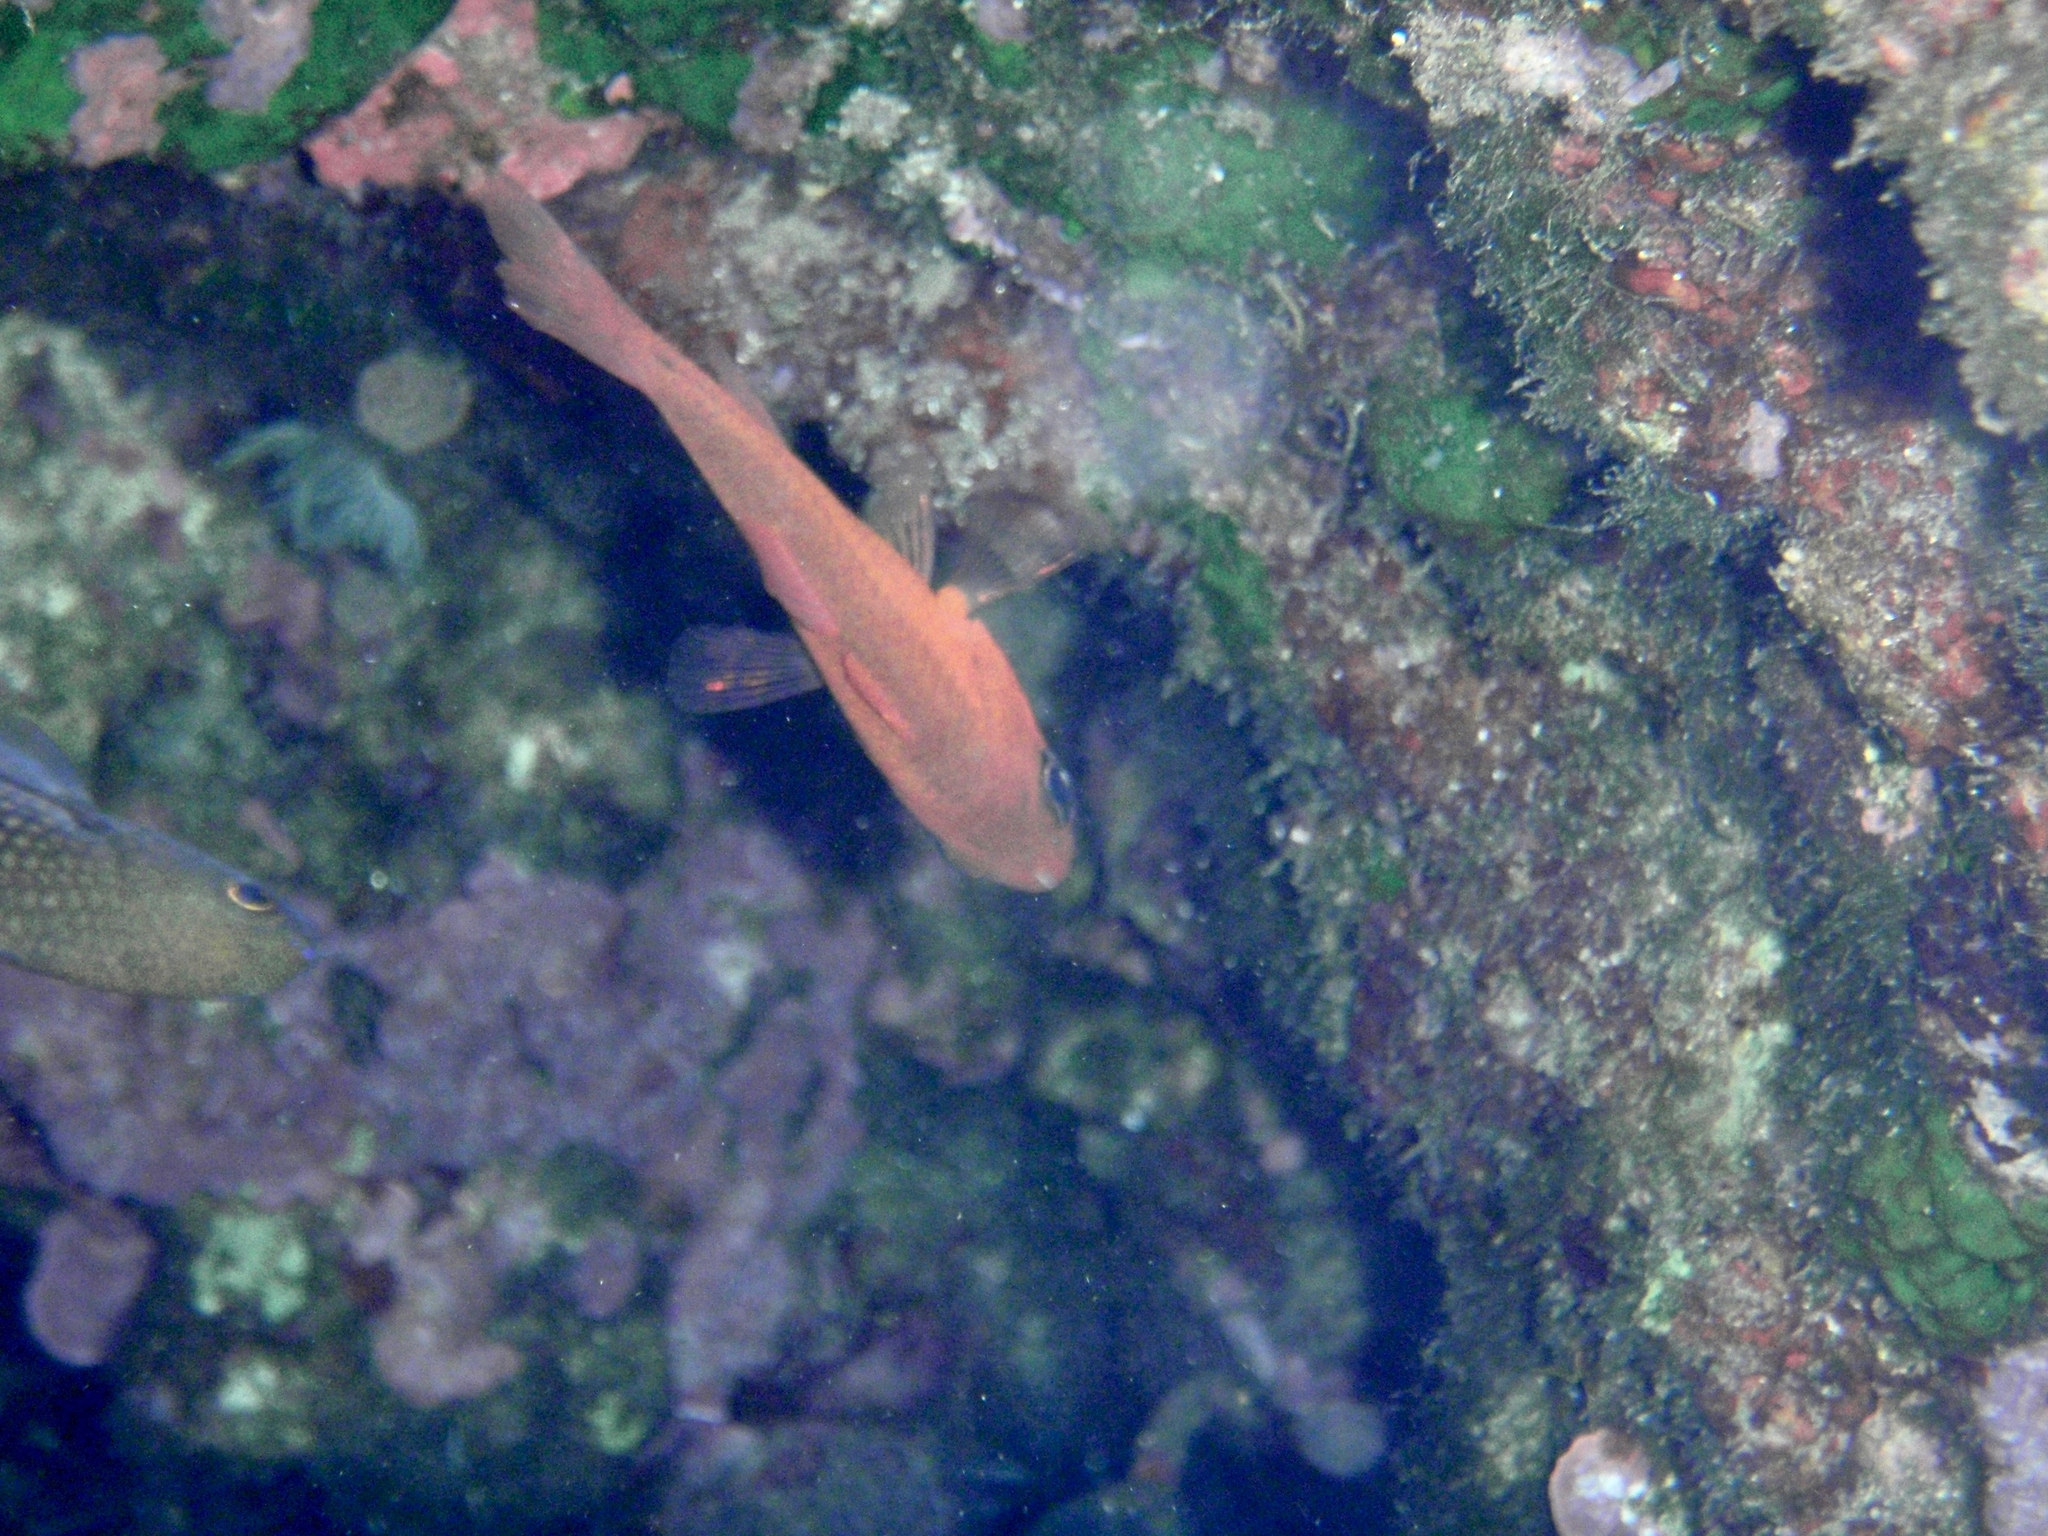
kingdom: Animalia
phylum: Chordata
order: Perciformes
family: Apogonidae
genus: Apogon
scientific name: Apogon imberbis
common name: Cardinal fish
